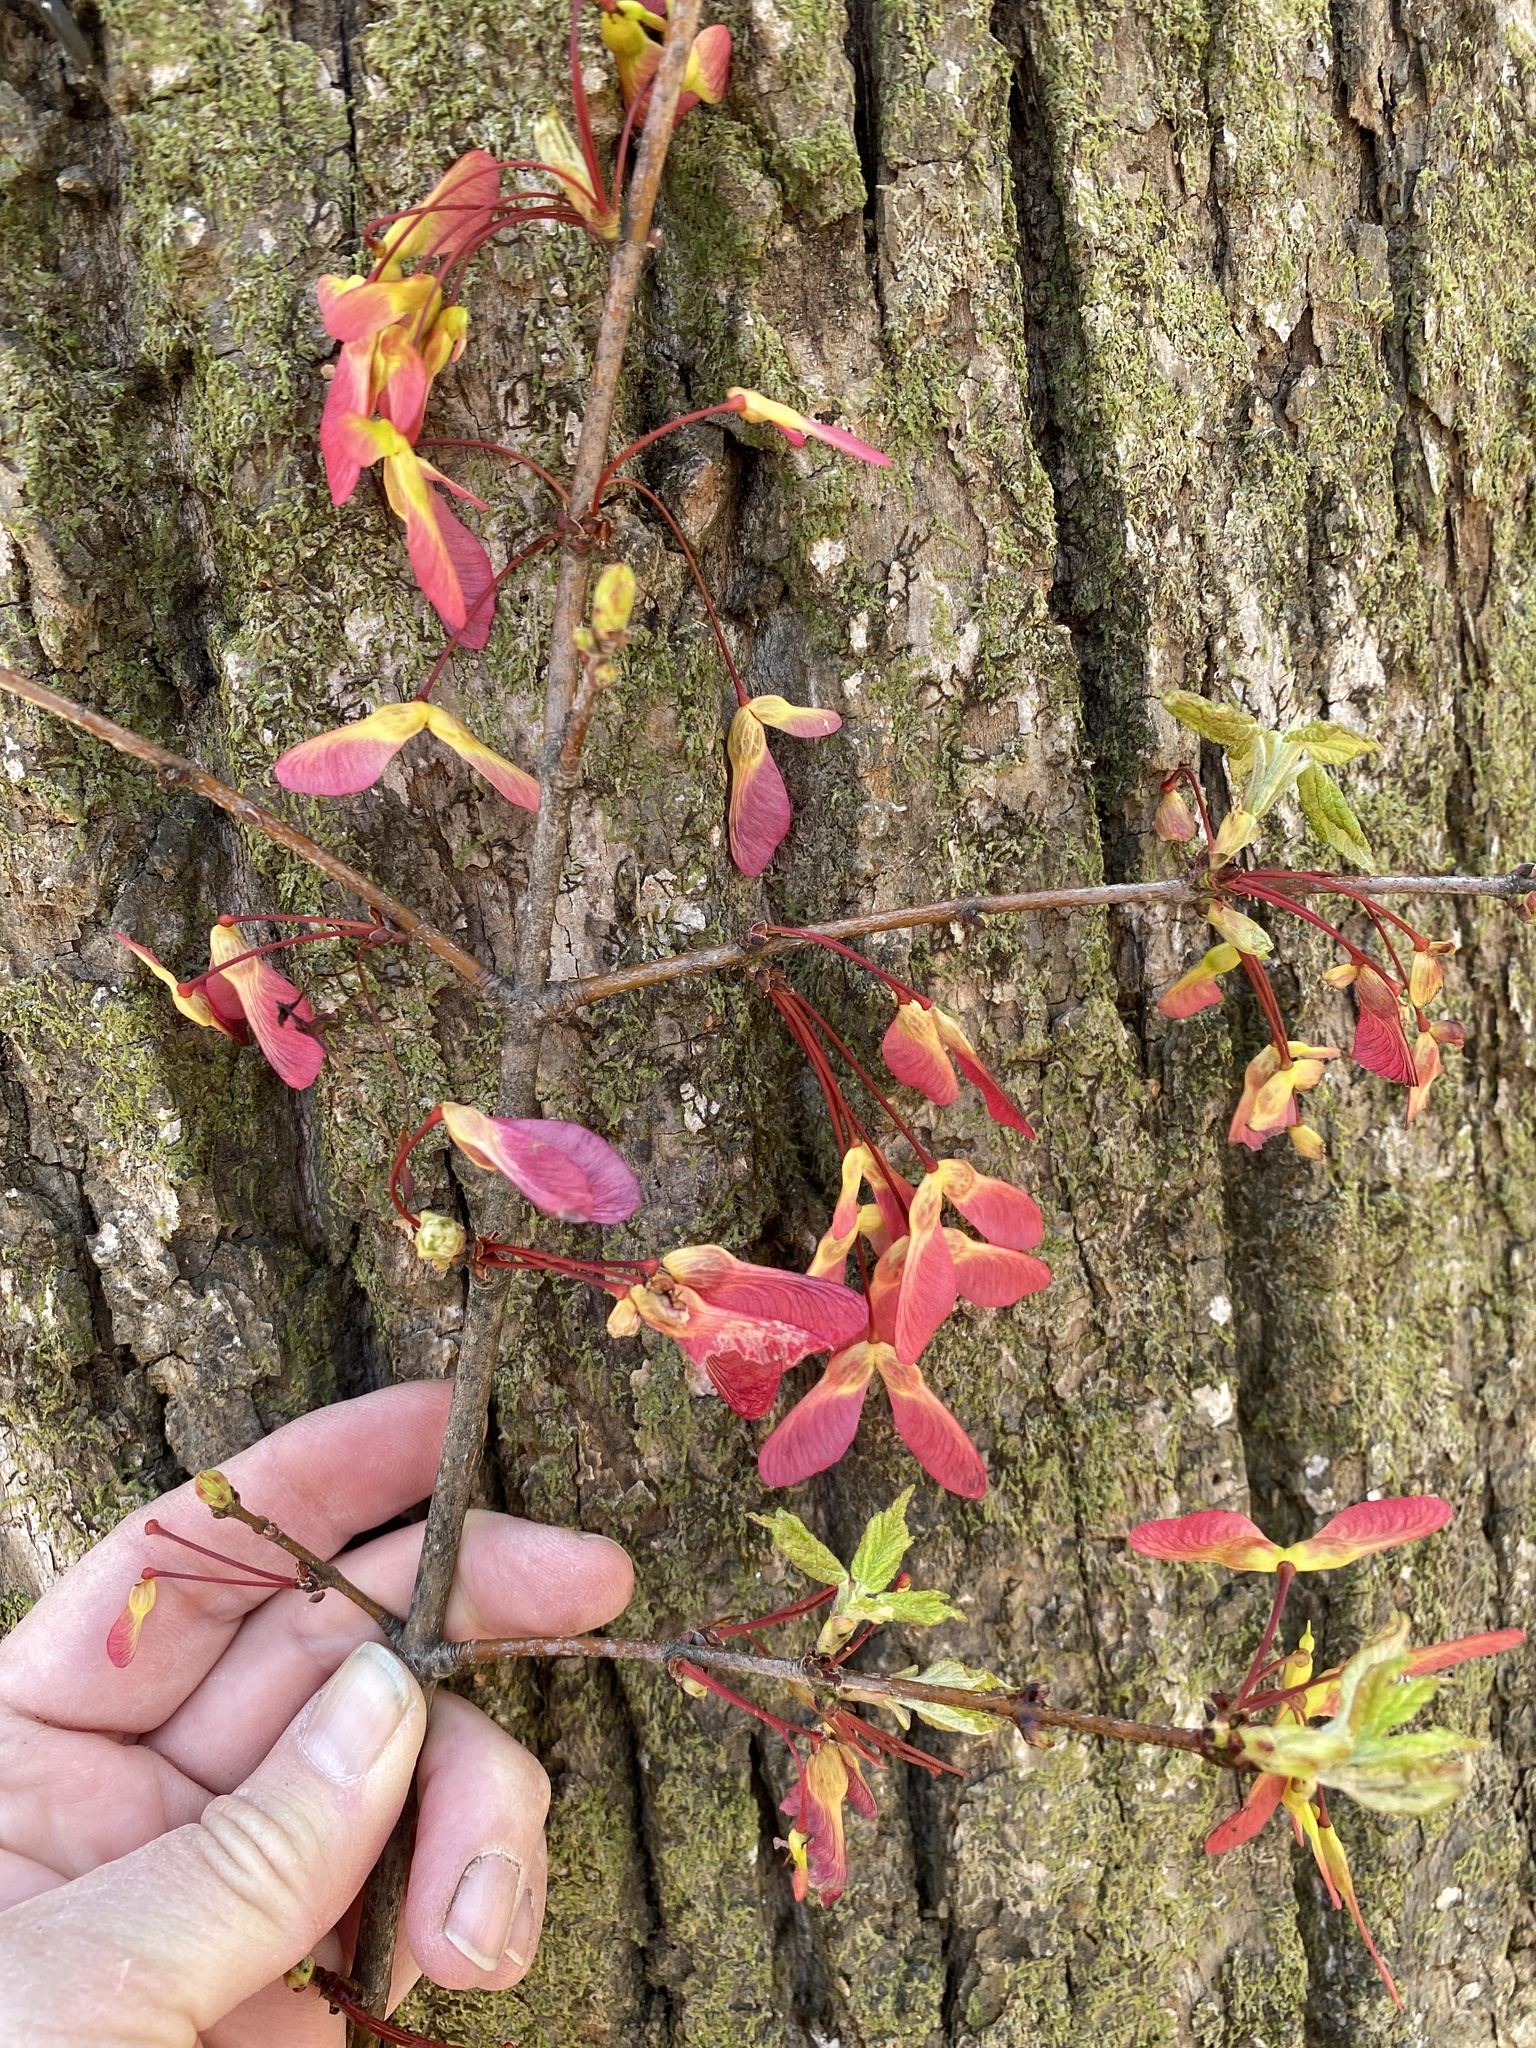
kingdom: Plantae
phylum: Tracheophyta
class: Magnoliopsida
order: Sapindales
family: Sapindaceae
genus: Acer
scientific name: Acer rubrum
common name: Red maple
